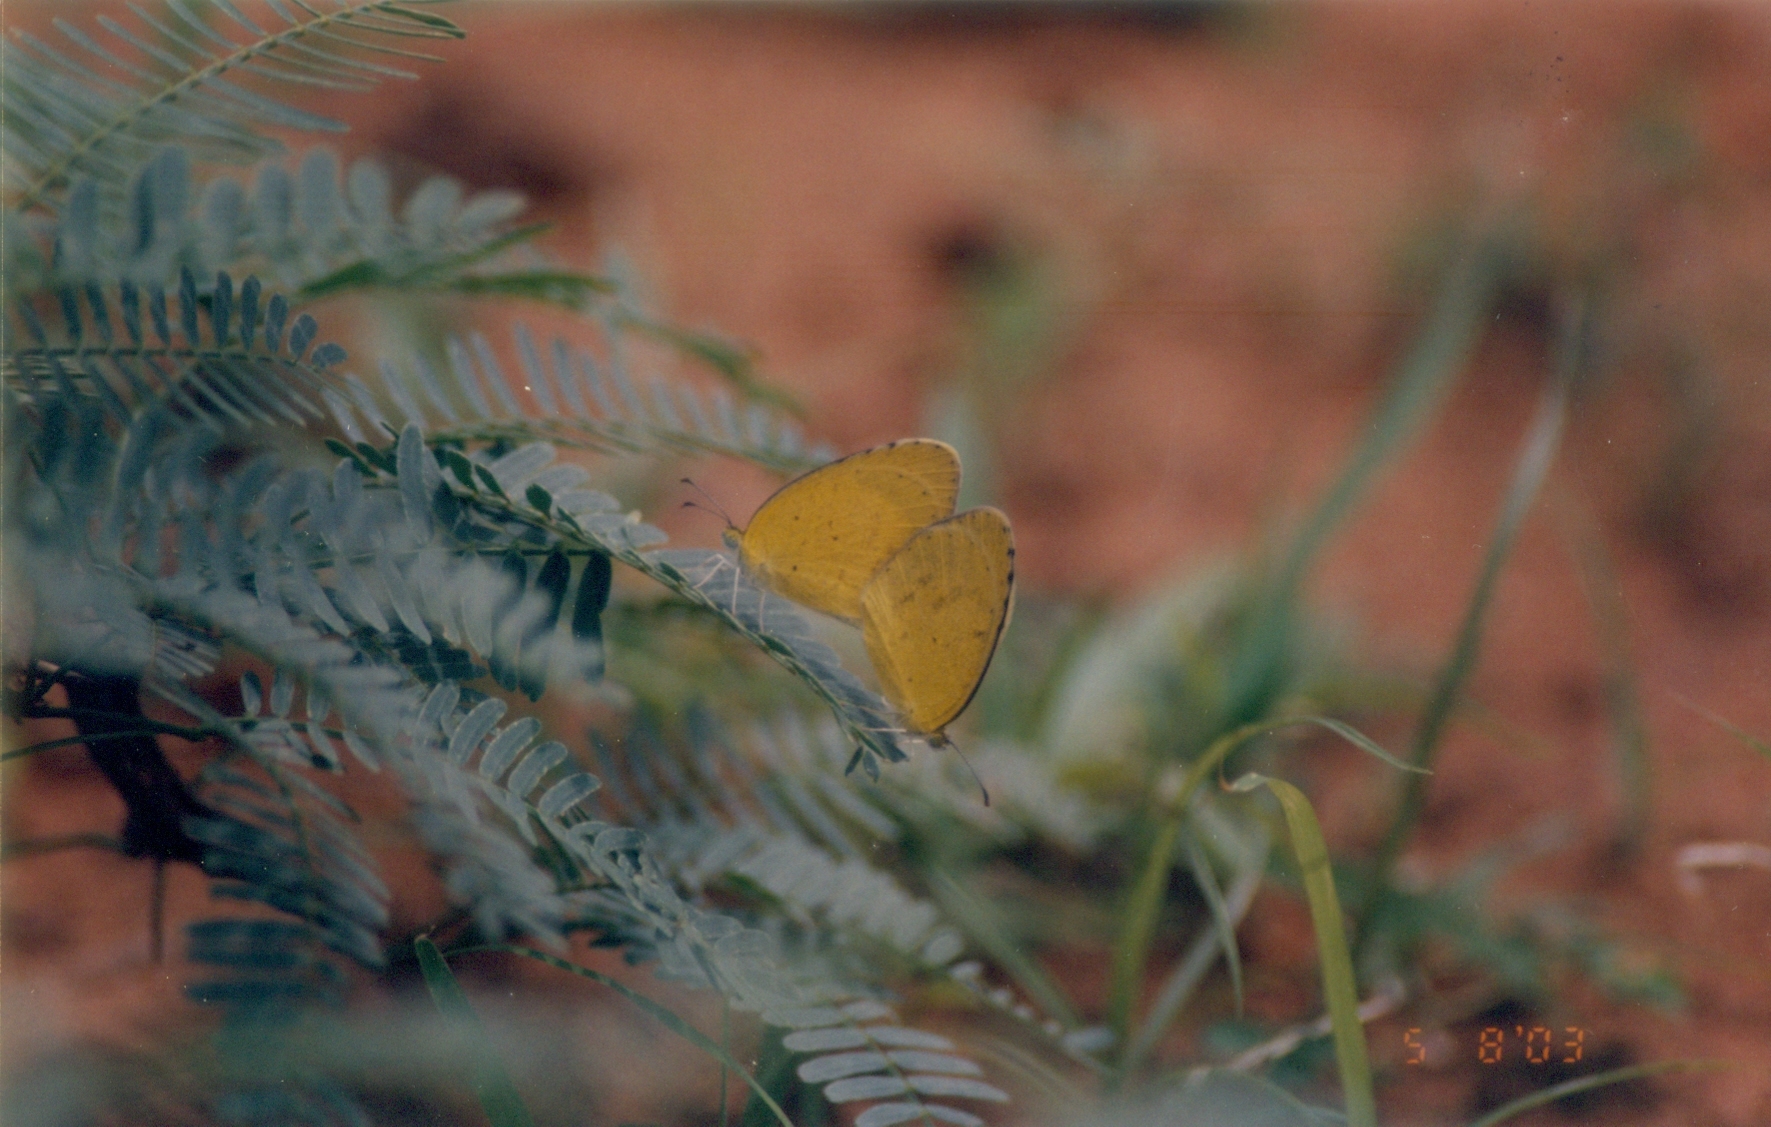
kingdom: Animalia
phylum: Arthropoda
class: Insecta
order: Lepidoptera
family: Pieridae
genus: Eurema
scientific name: Eurema brigitta
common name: Small grass yellow
